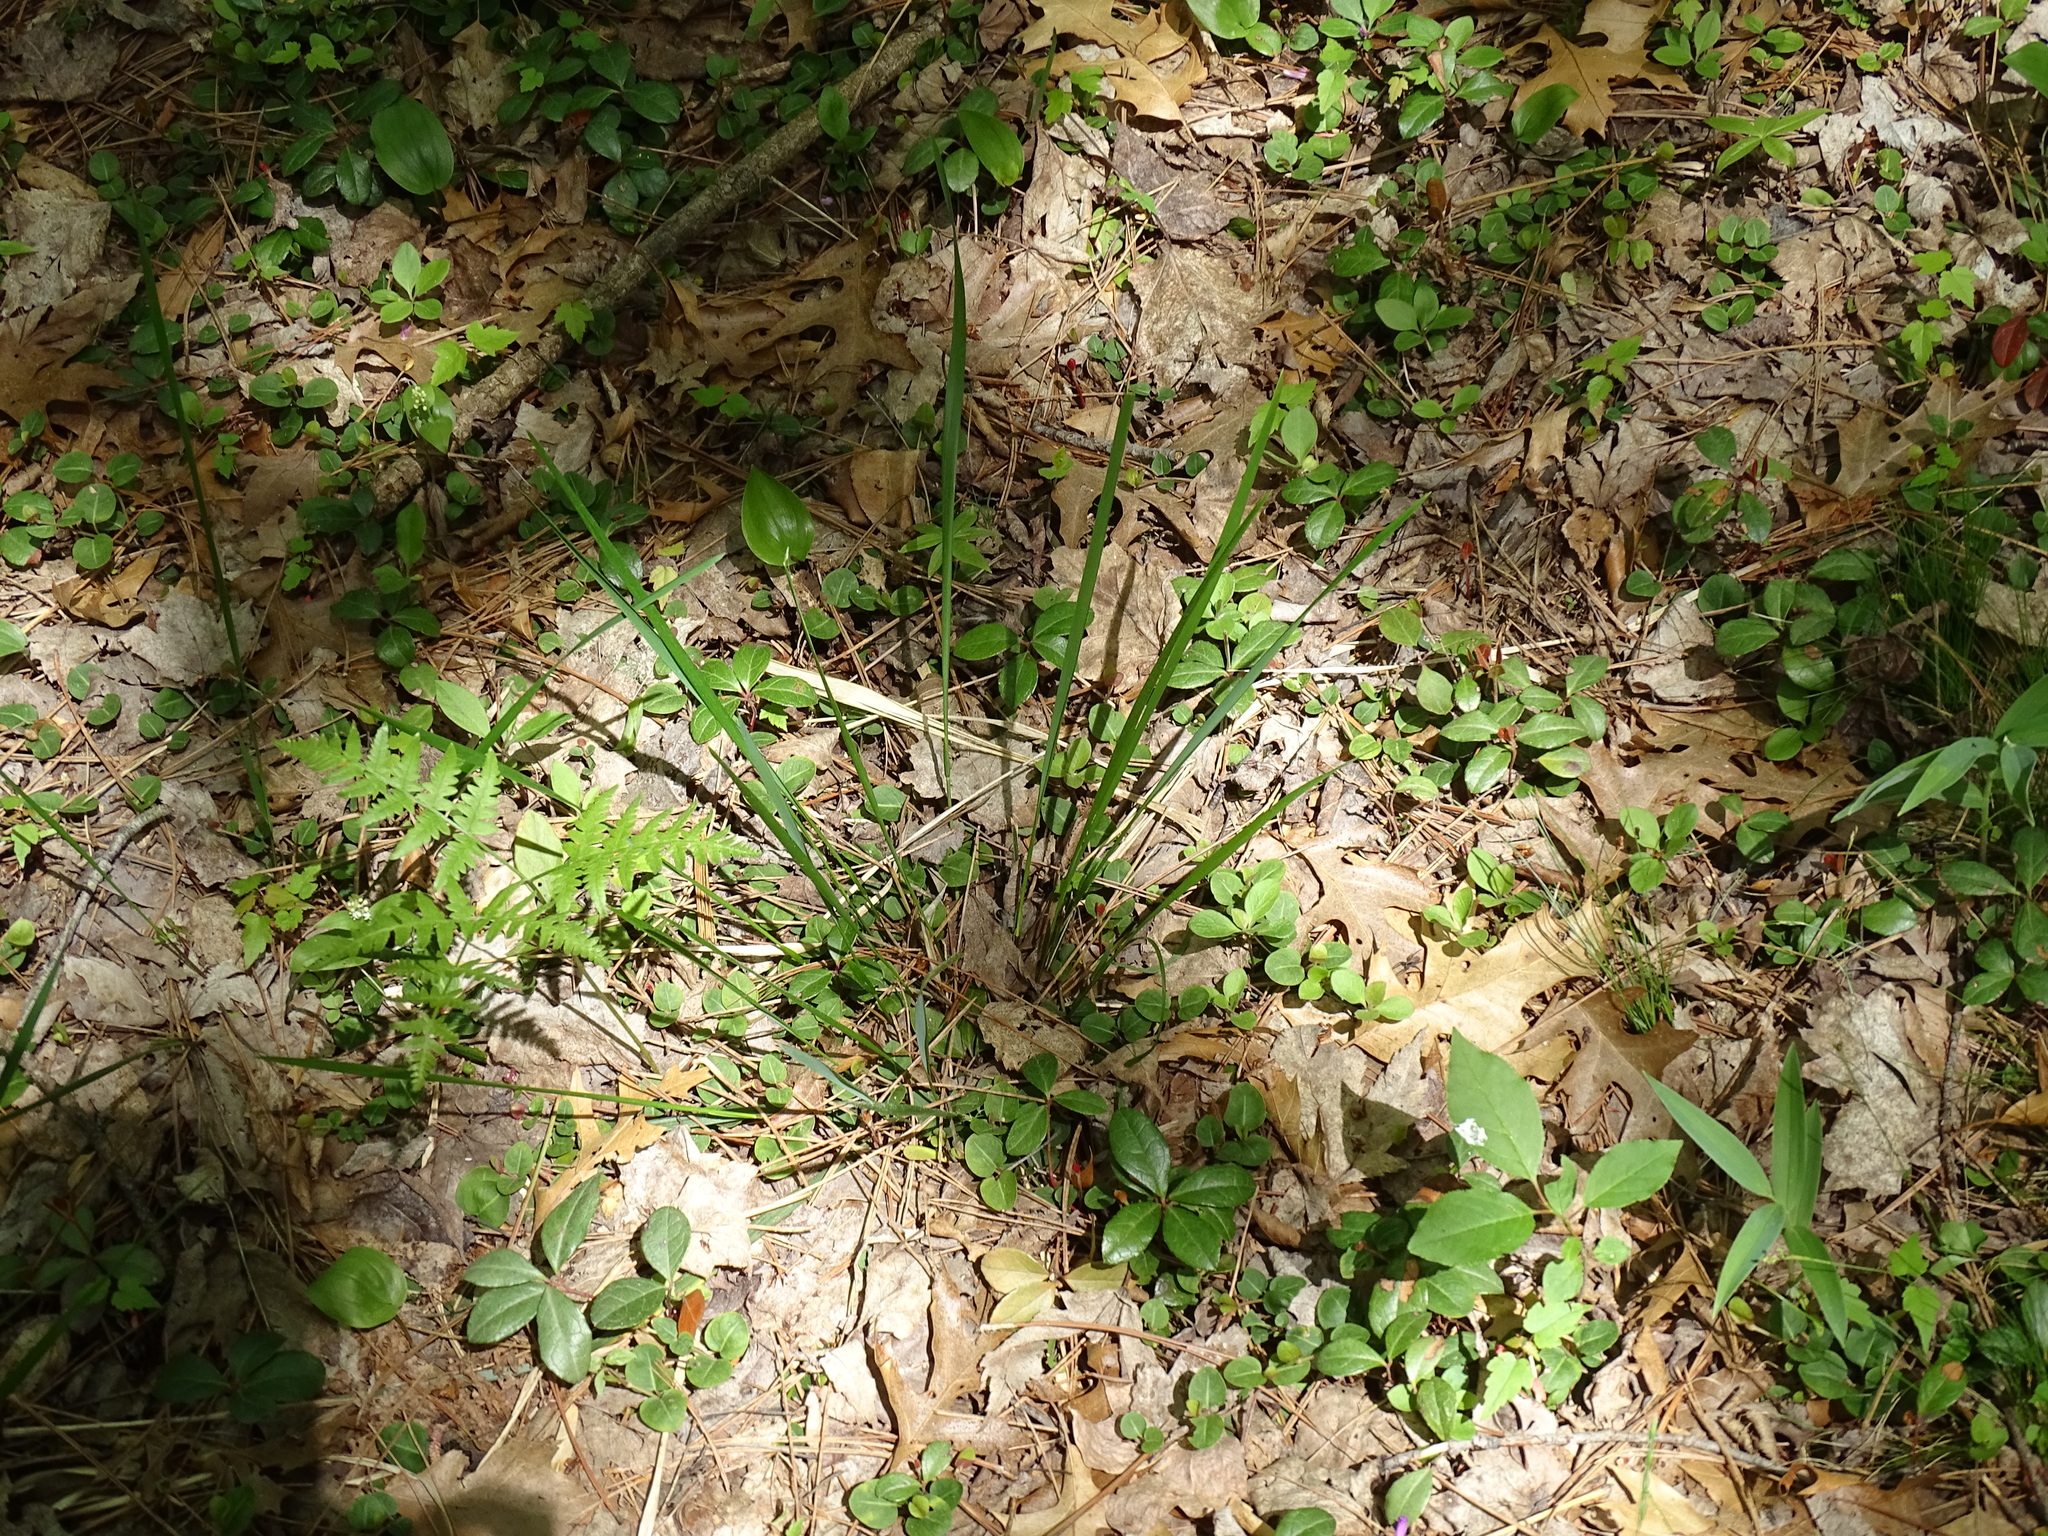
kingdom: Plantae
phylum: Tracheophyta
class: Liliopsida
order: Poales
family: Poaceae
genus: Oryzopsis
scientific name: Oryzopsis asperifolia
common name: Rough-leaved mountain rice
